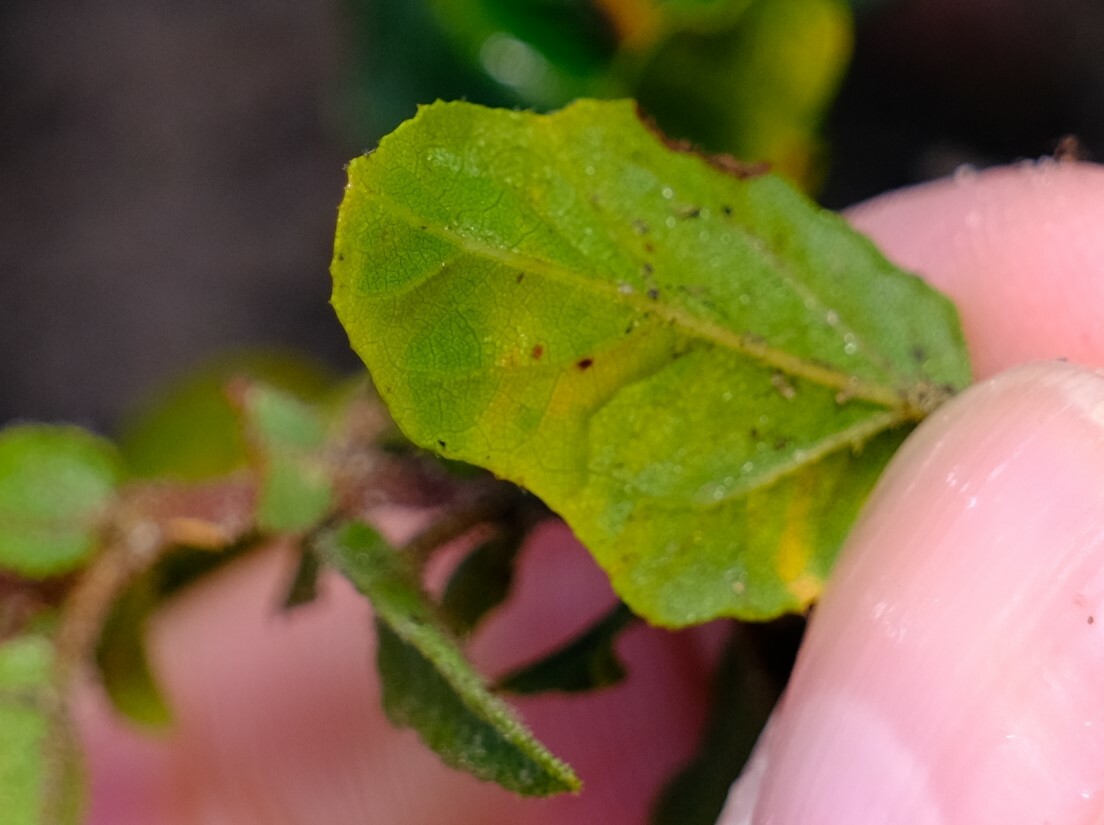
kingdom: Plantae
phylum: Tracheophyta
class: Magnoliopsida
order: Malvales
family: Malvaceae
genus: Thomasia
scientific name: Thomasia grandiflora
